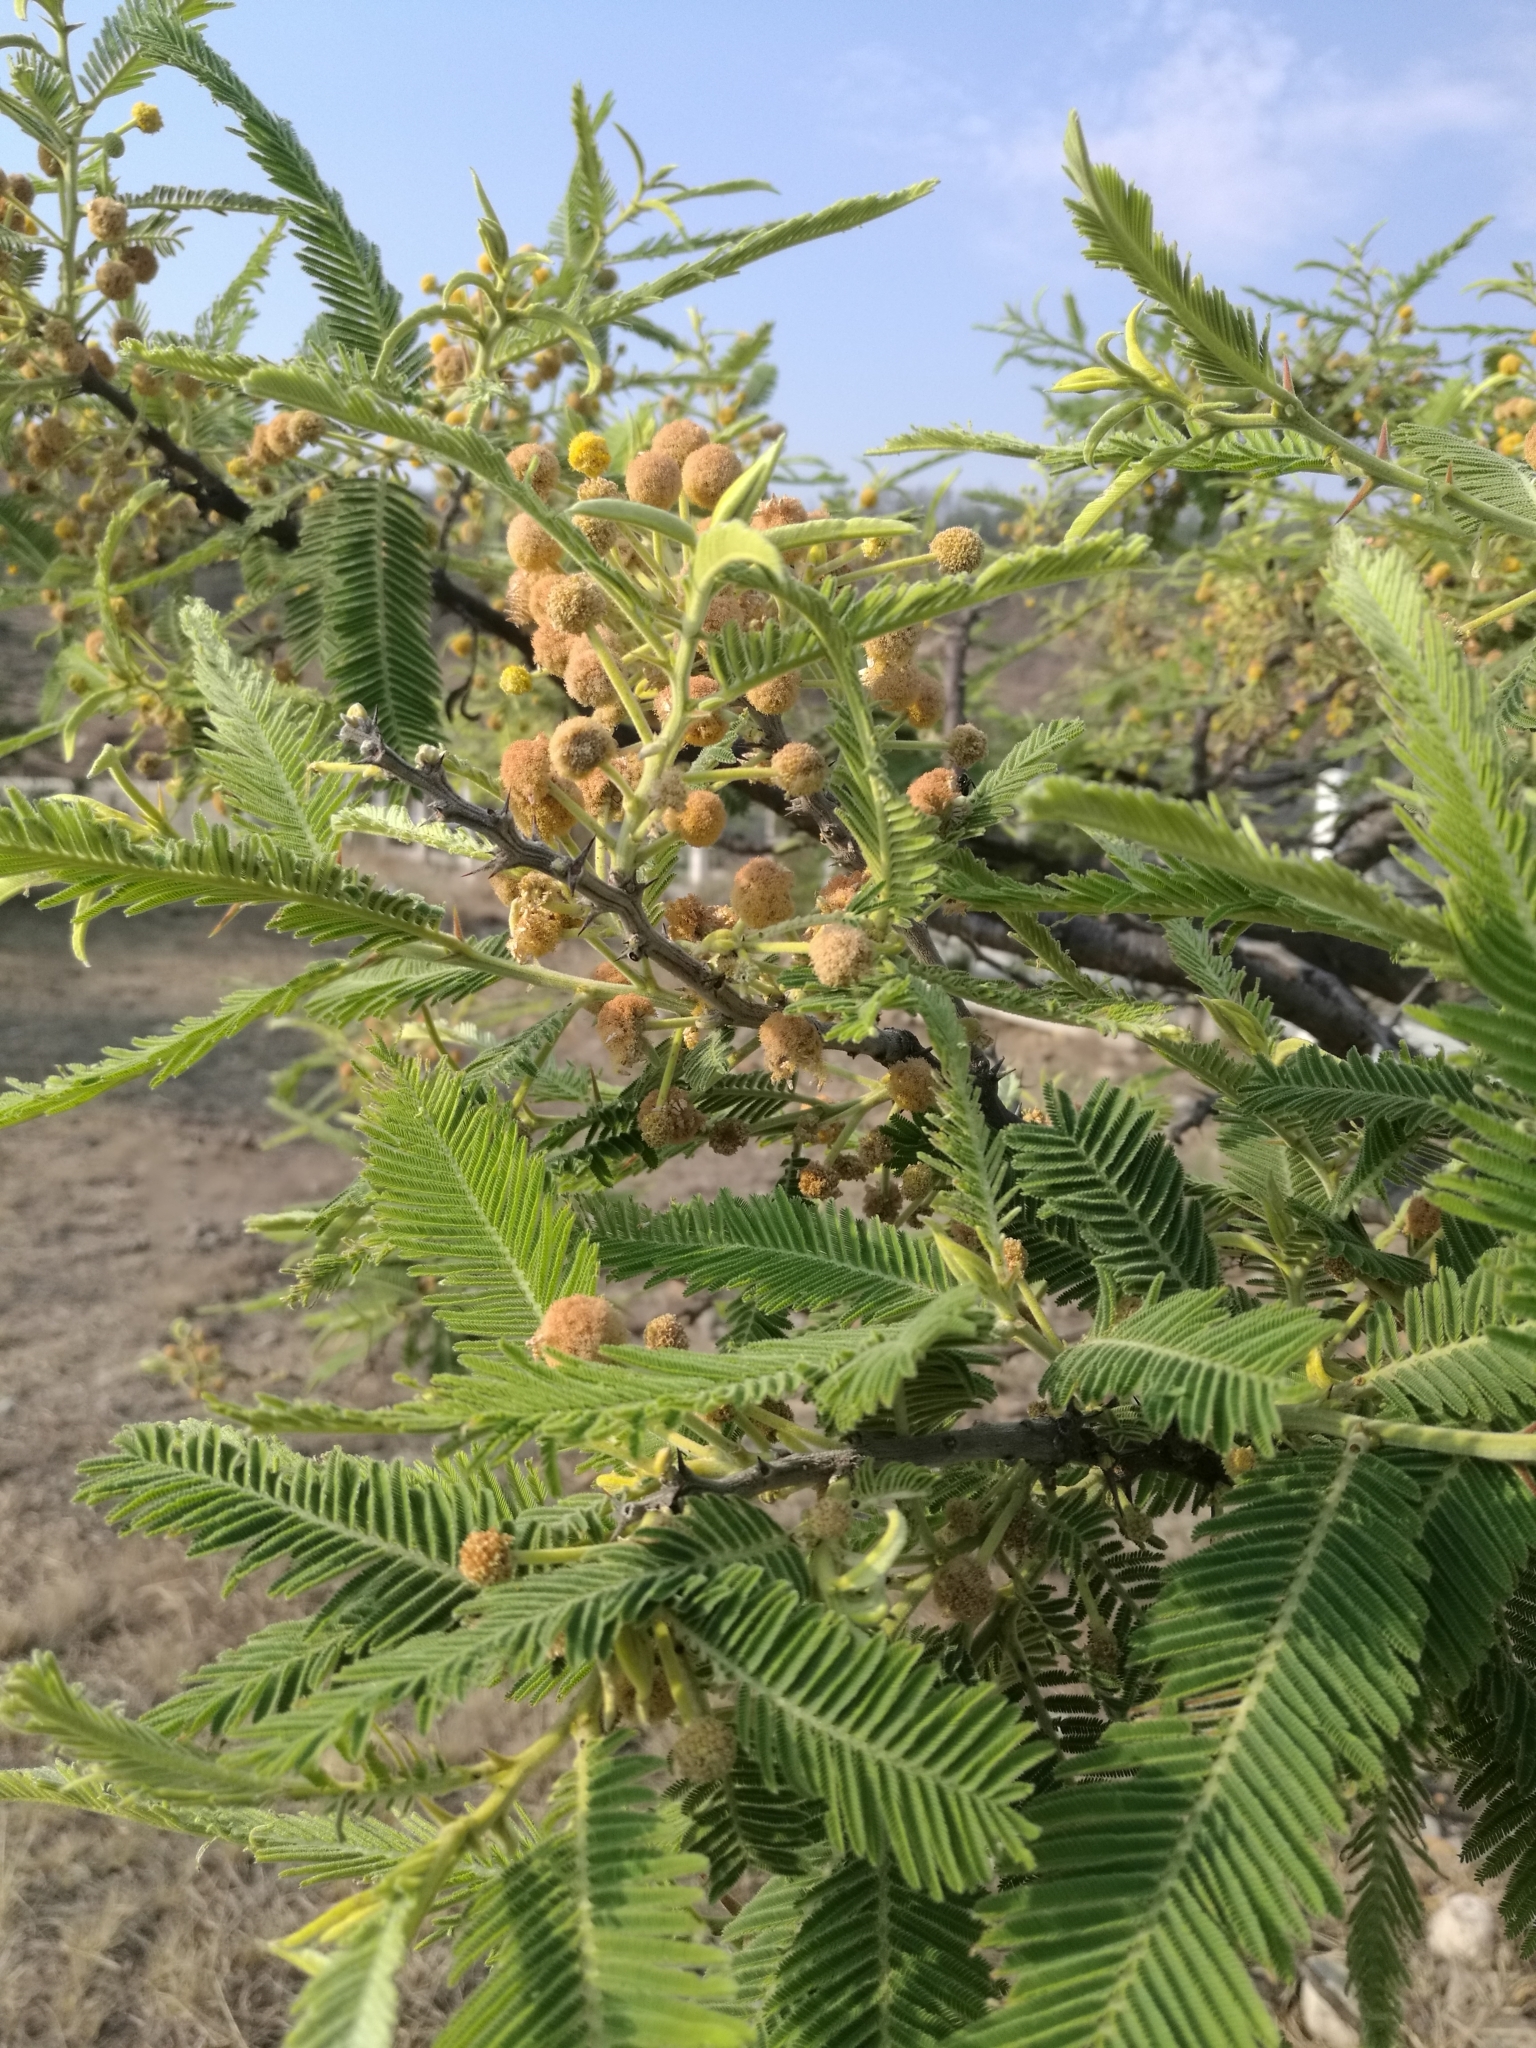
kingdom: Plantae
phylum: Tracheophyta
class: Magnoliopsida
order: Fabales
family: Fabaceae
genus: Vachellia
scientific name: Vachellia pennatula
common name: Fern-leaf acacia
